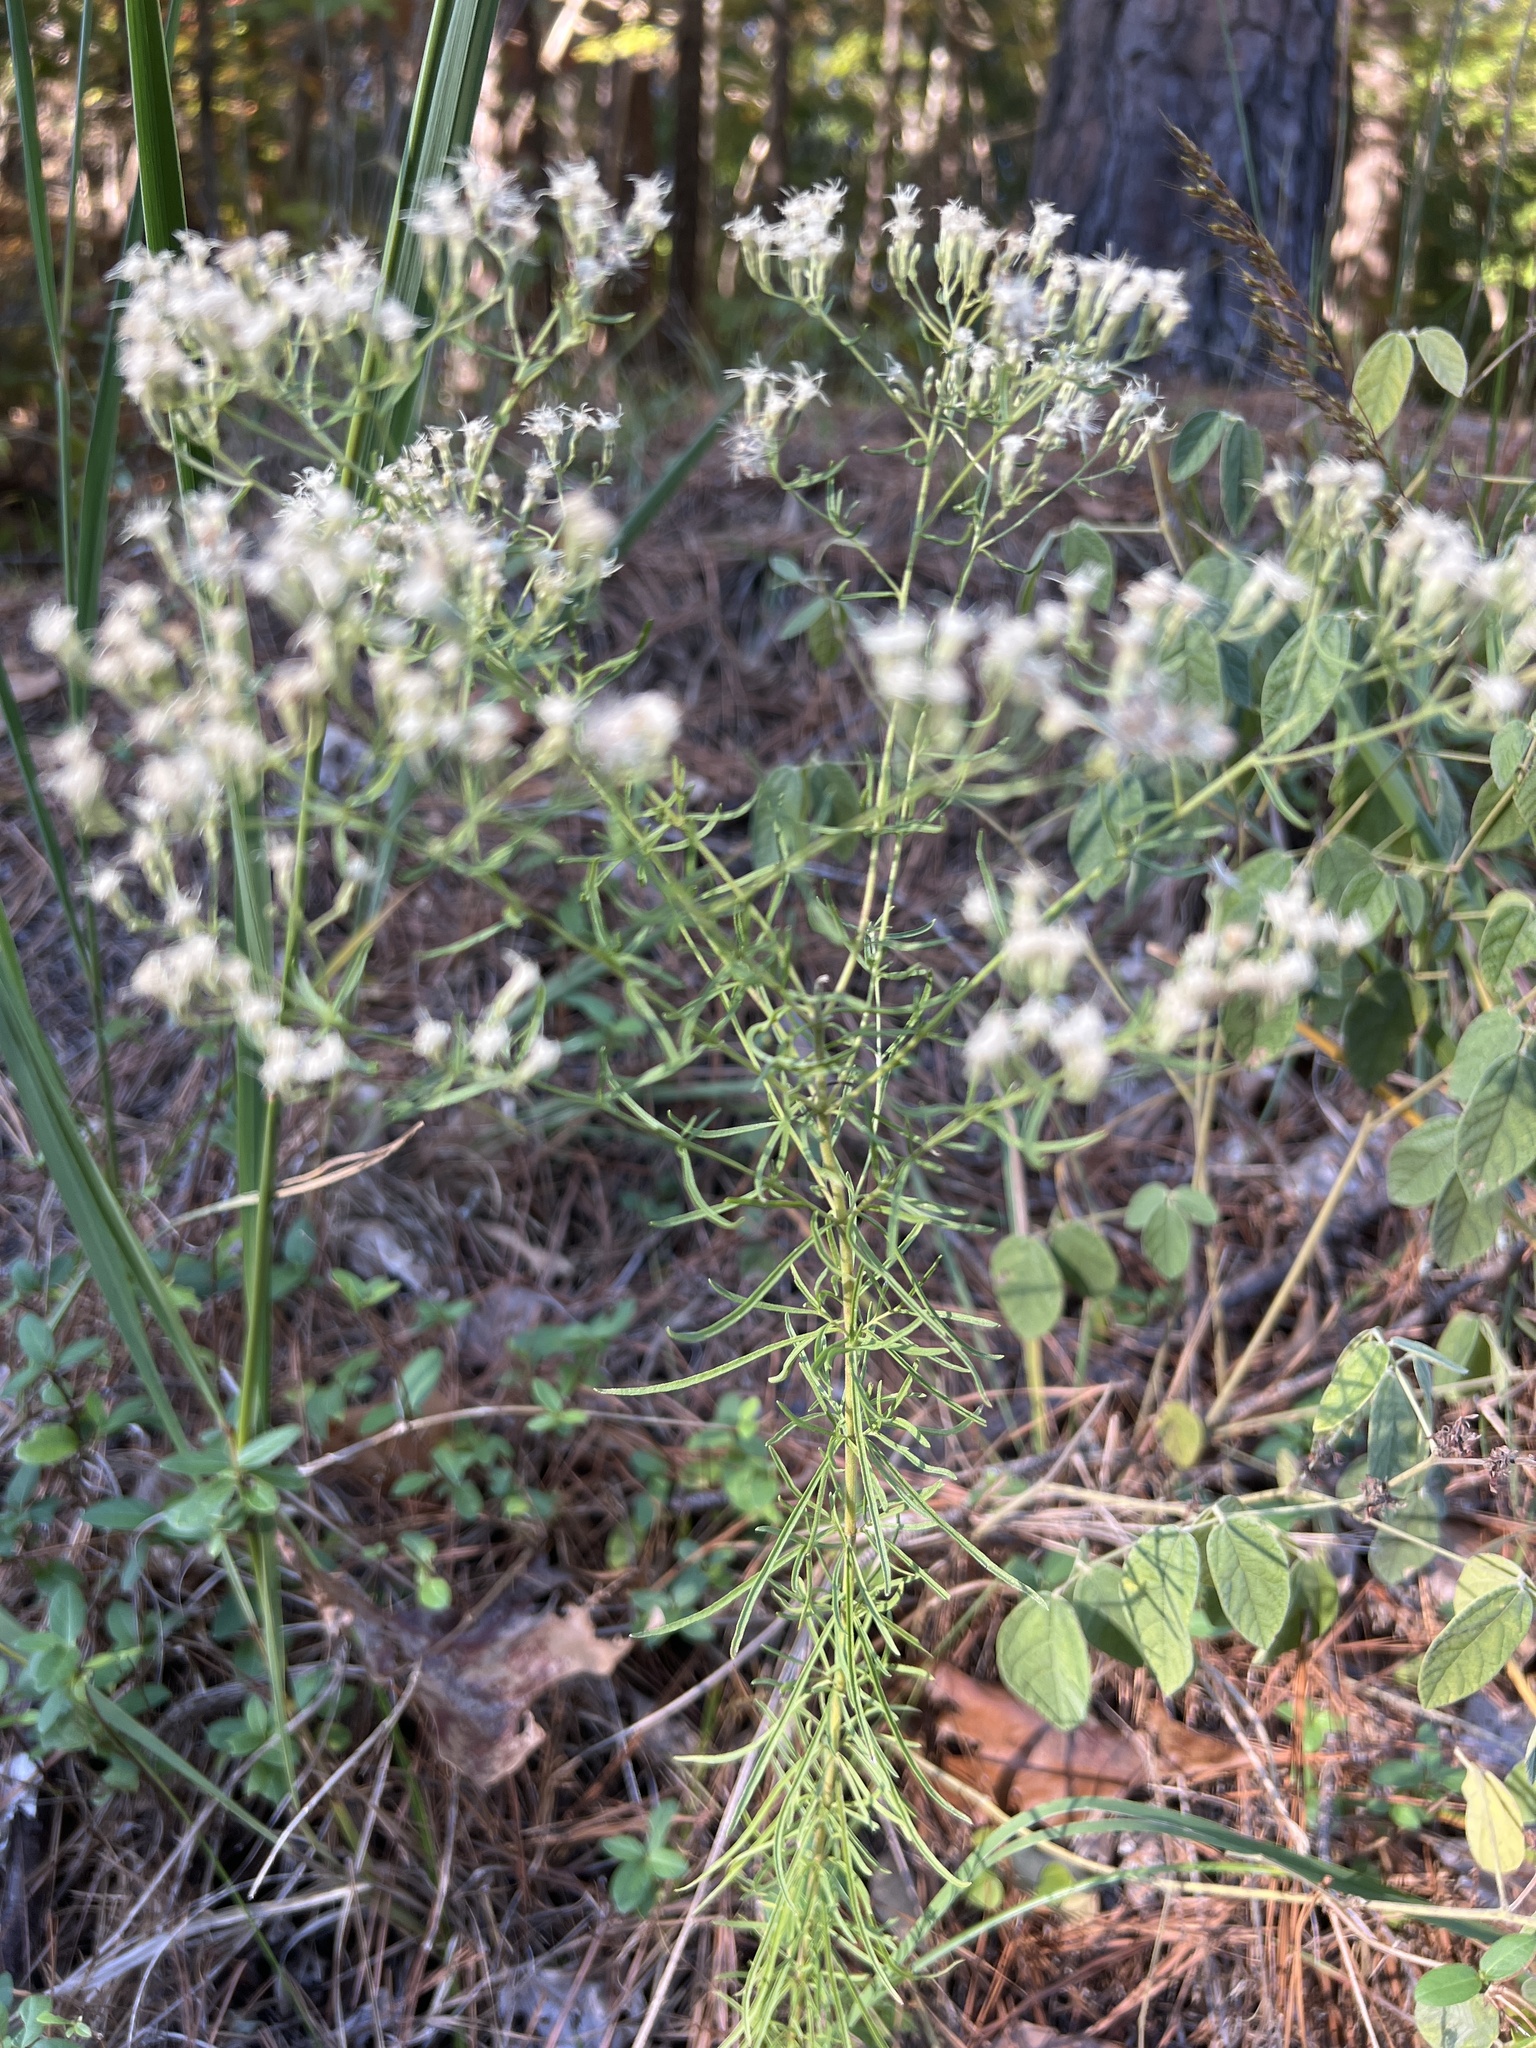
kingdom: Plantae
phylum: Tracheophyta
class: Magnoliopsida
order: Asterales
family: Asteraceae
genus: Eupatorium
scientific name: Eupatorium hyssopifolium
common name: Hyssop-leaf thoroughwort
